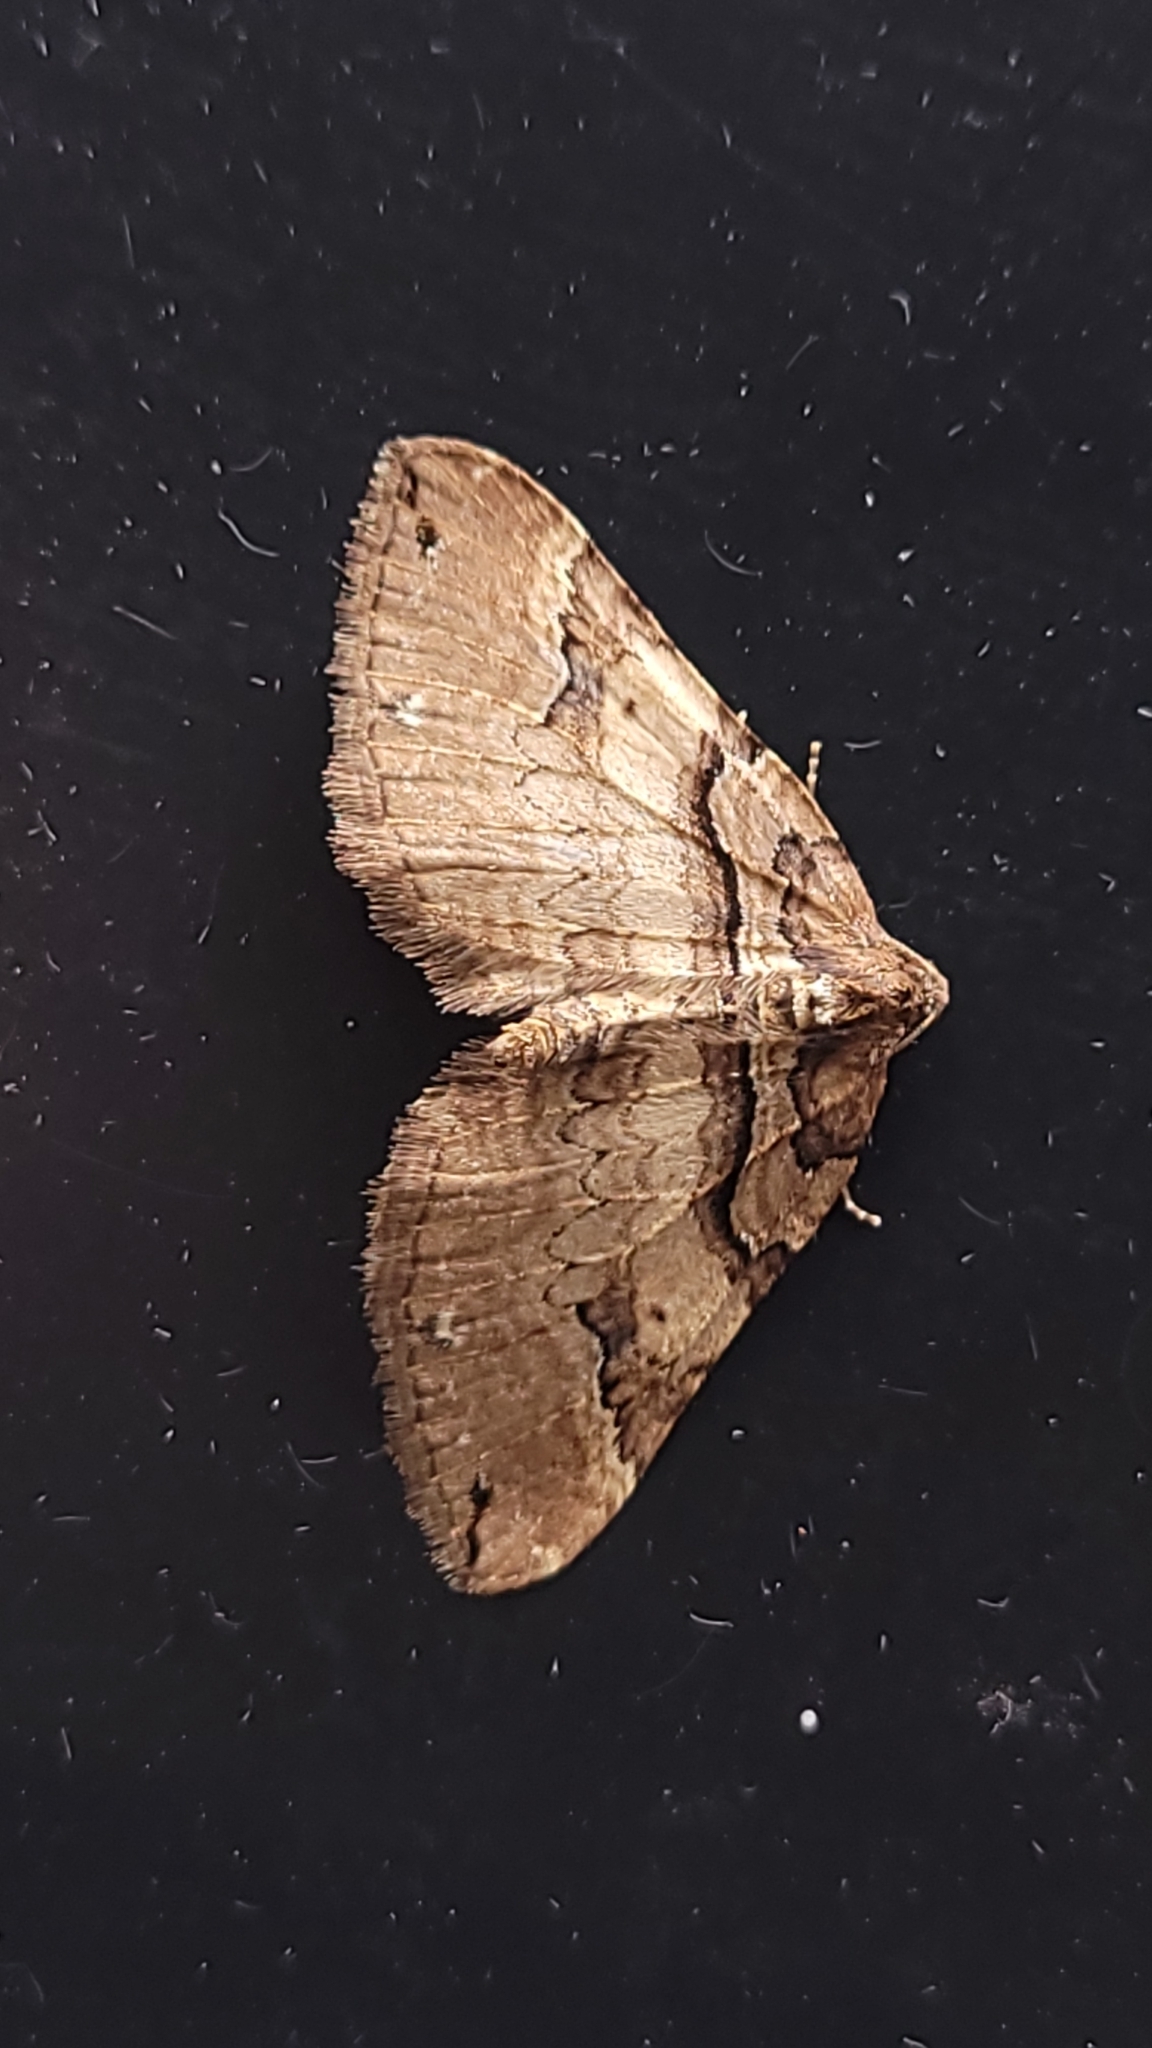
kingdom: Animalia
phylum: Arthropoda
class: Insecta
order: Lepidoptera
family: Geometridae
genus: Anticlea
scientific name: Anticlea badiata
